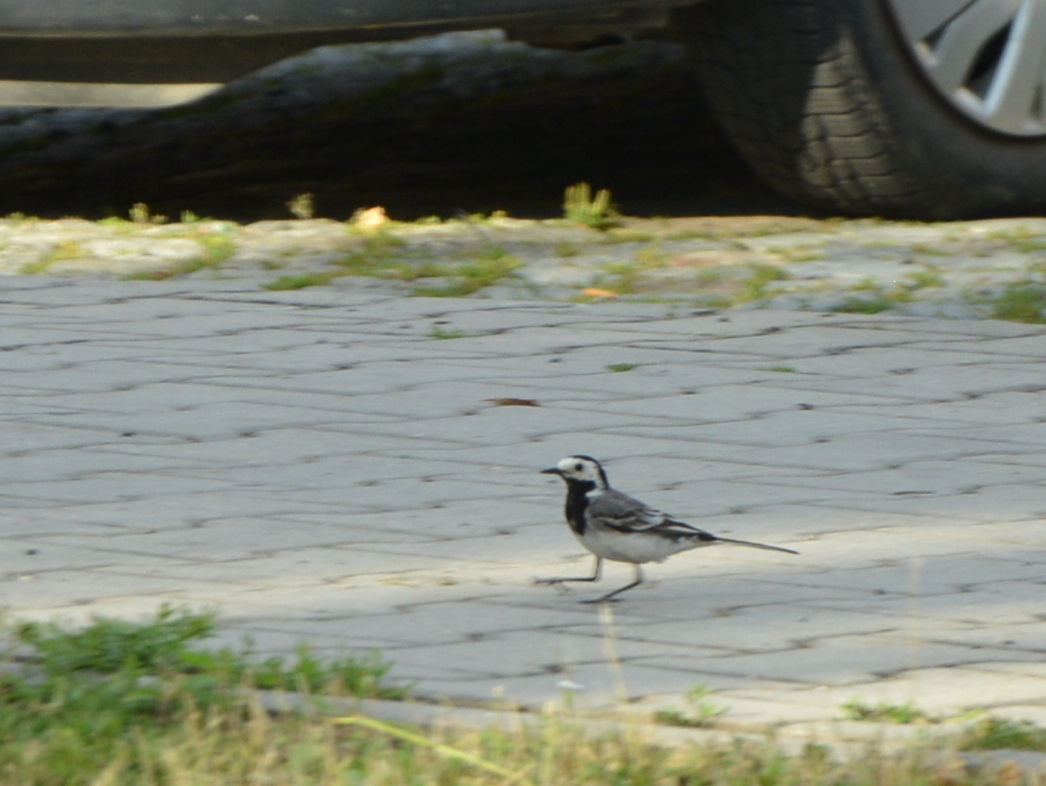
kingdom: Animalia
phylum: Chordata
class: Aves
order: Passeriformes
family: Motacillidae
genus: Motacilla
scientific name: Motacilla alba
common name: White wagtail
